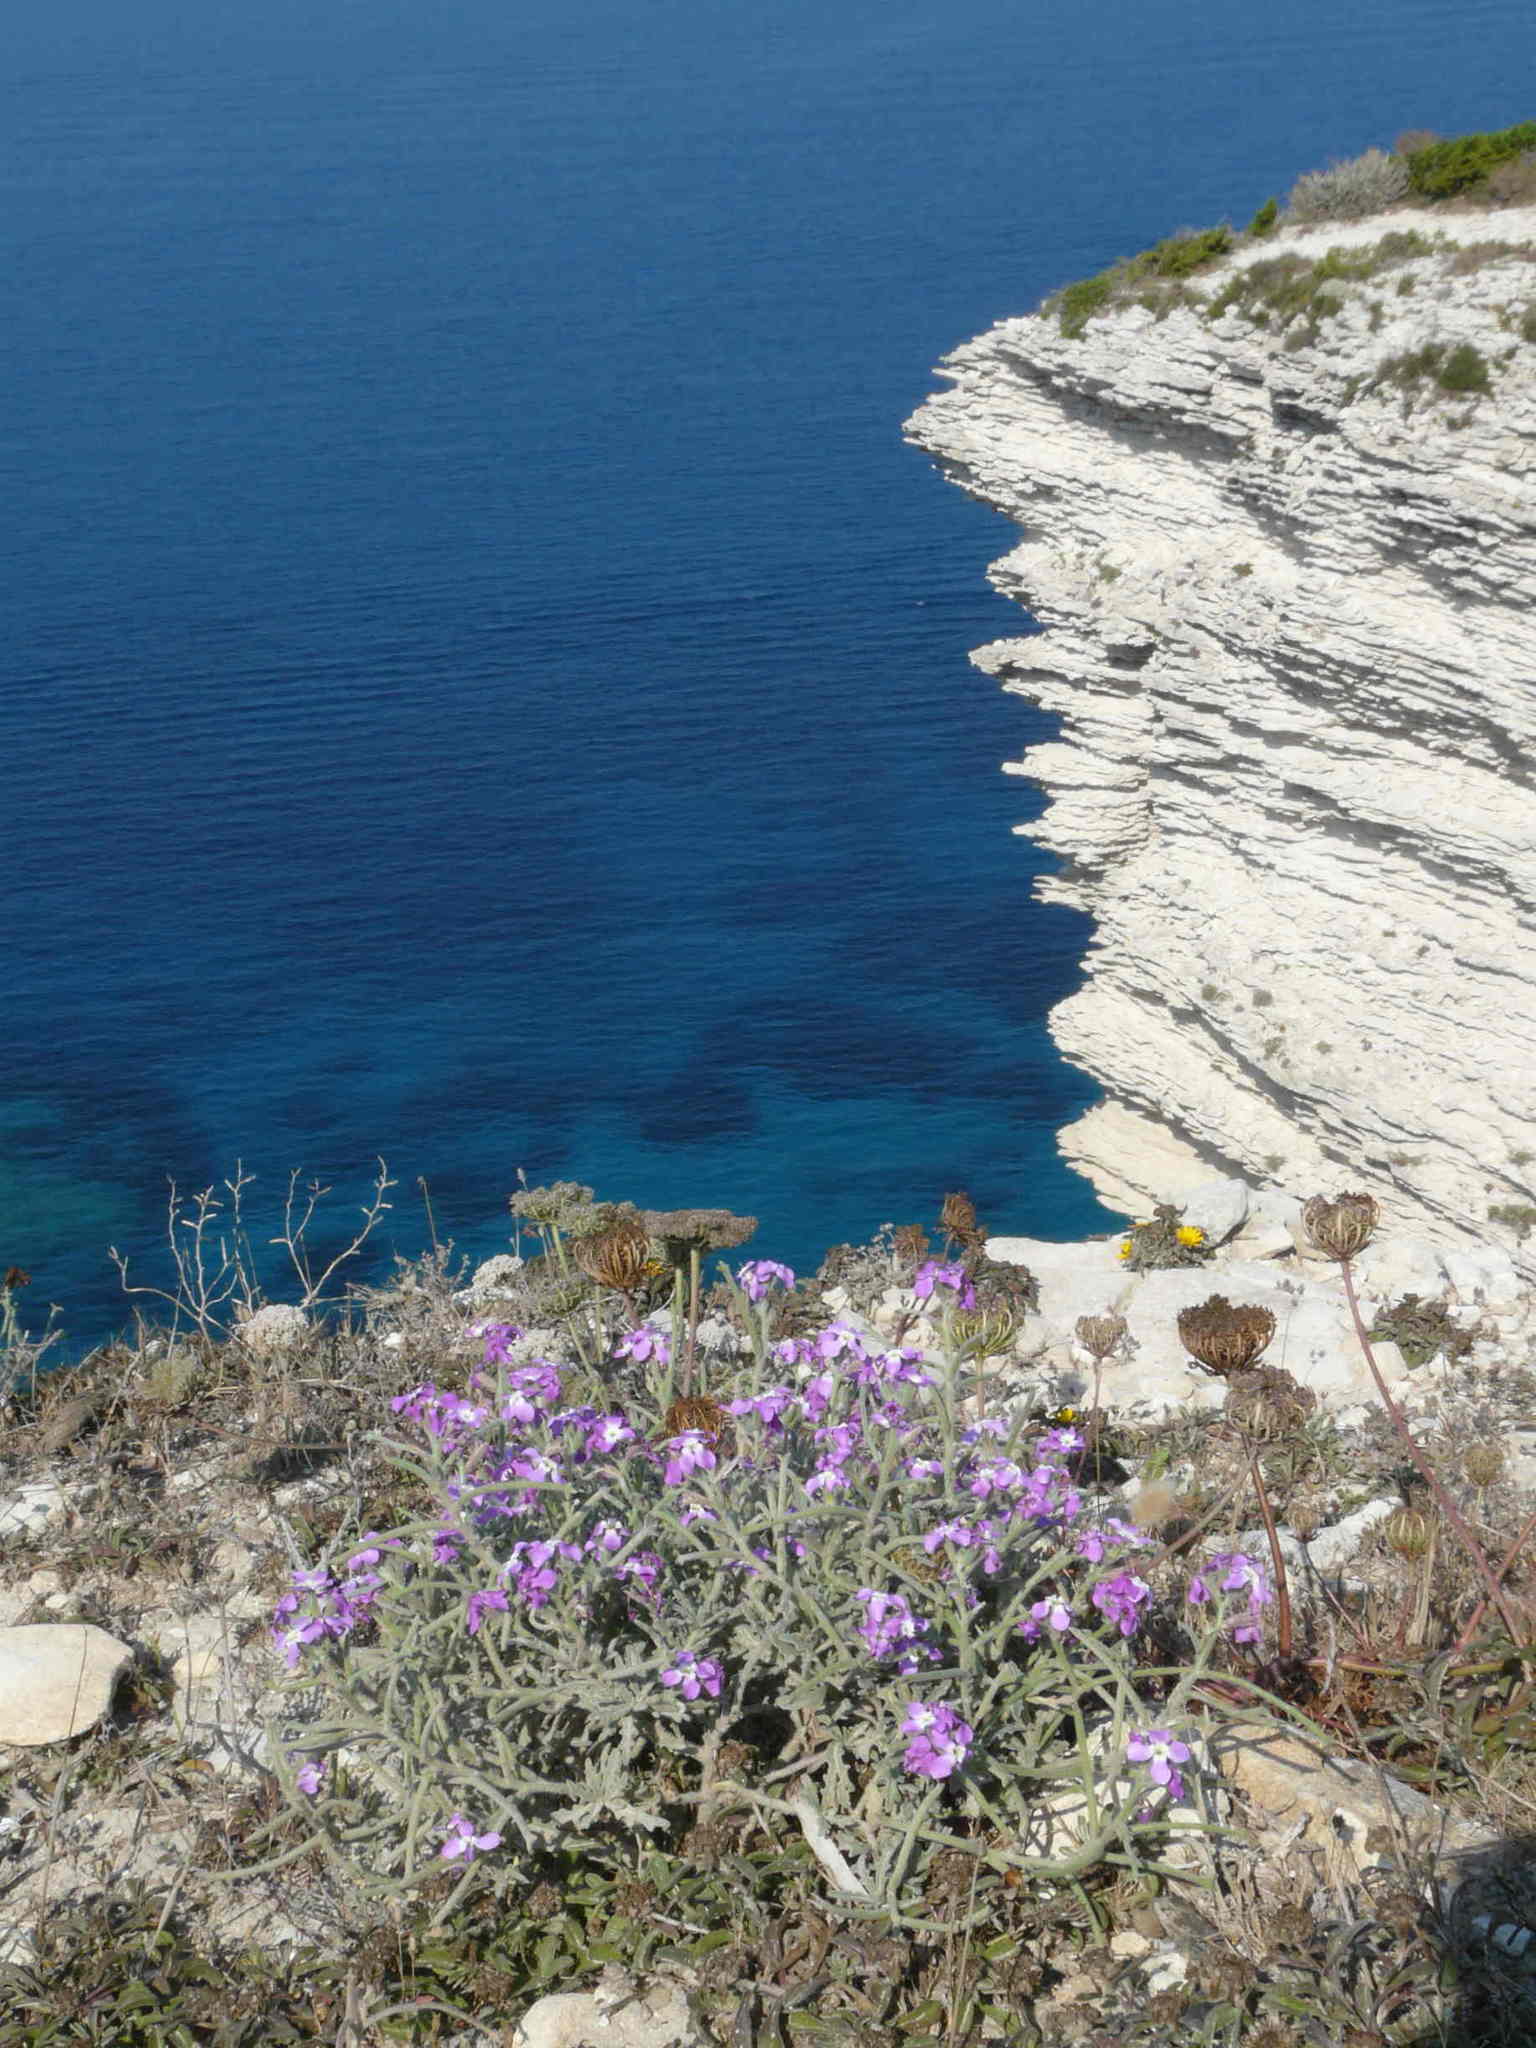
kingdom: Plantae
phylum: Tracheophyta
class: Magnoliopsida
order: Brassicales
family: Brassicaceae
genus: Matthiola
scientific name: Matthiola tricuspidata
